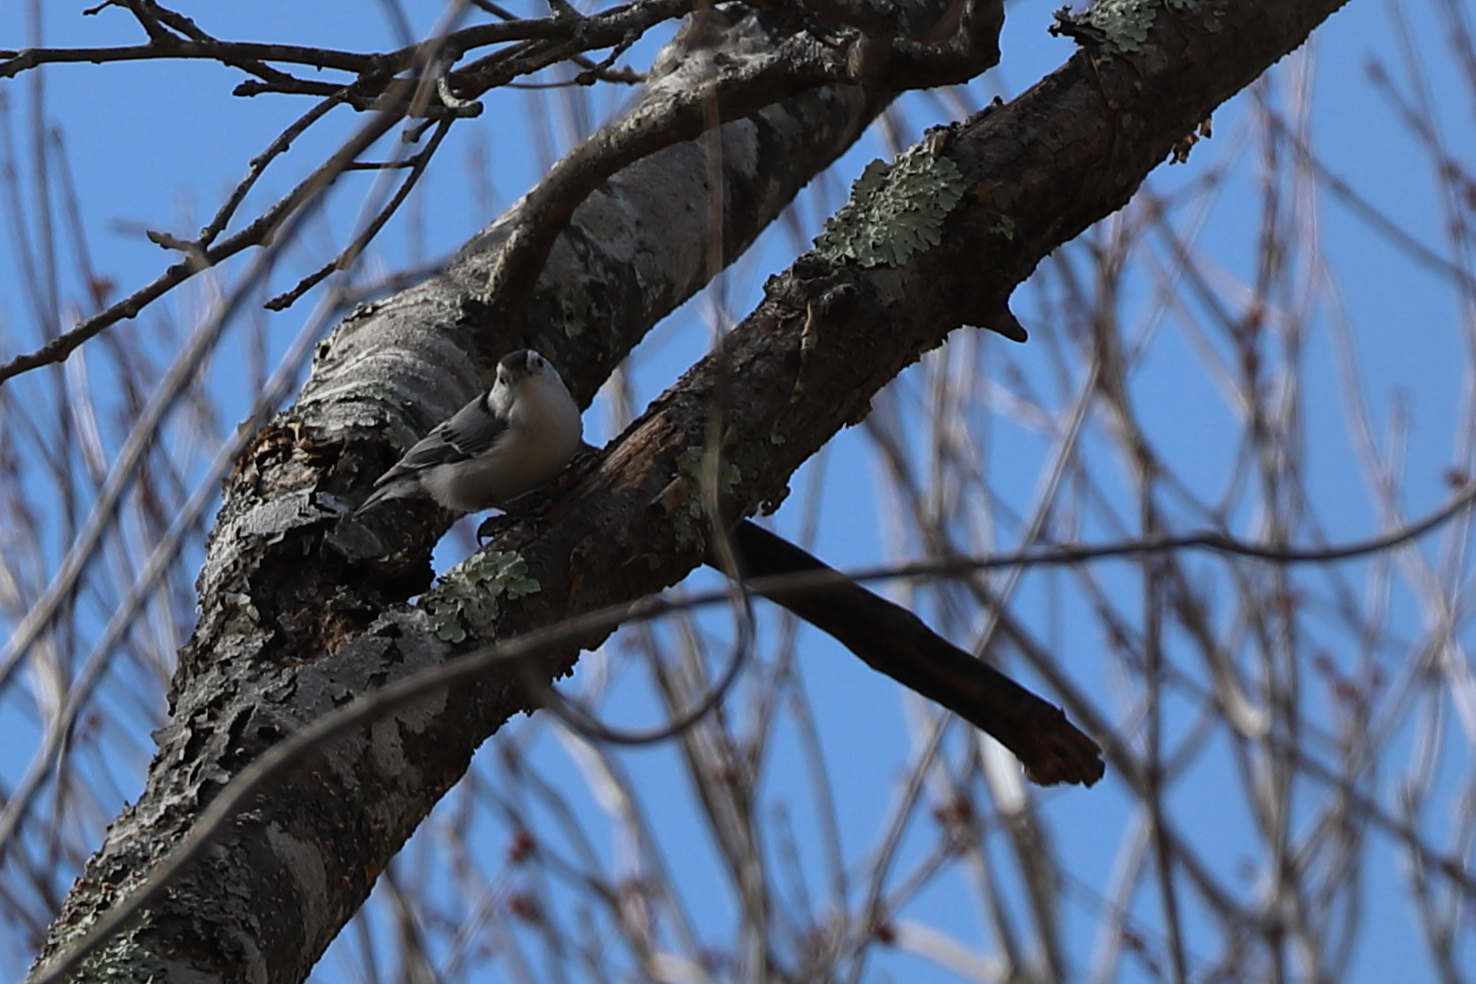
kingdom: Animalia
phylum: Chordata
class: Aves
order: Passeriformes
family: Sittidae
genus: Sitta
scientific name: Sitta carolinensis
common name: White-breasted nuthatch
